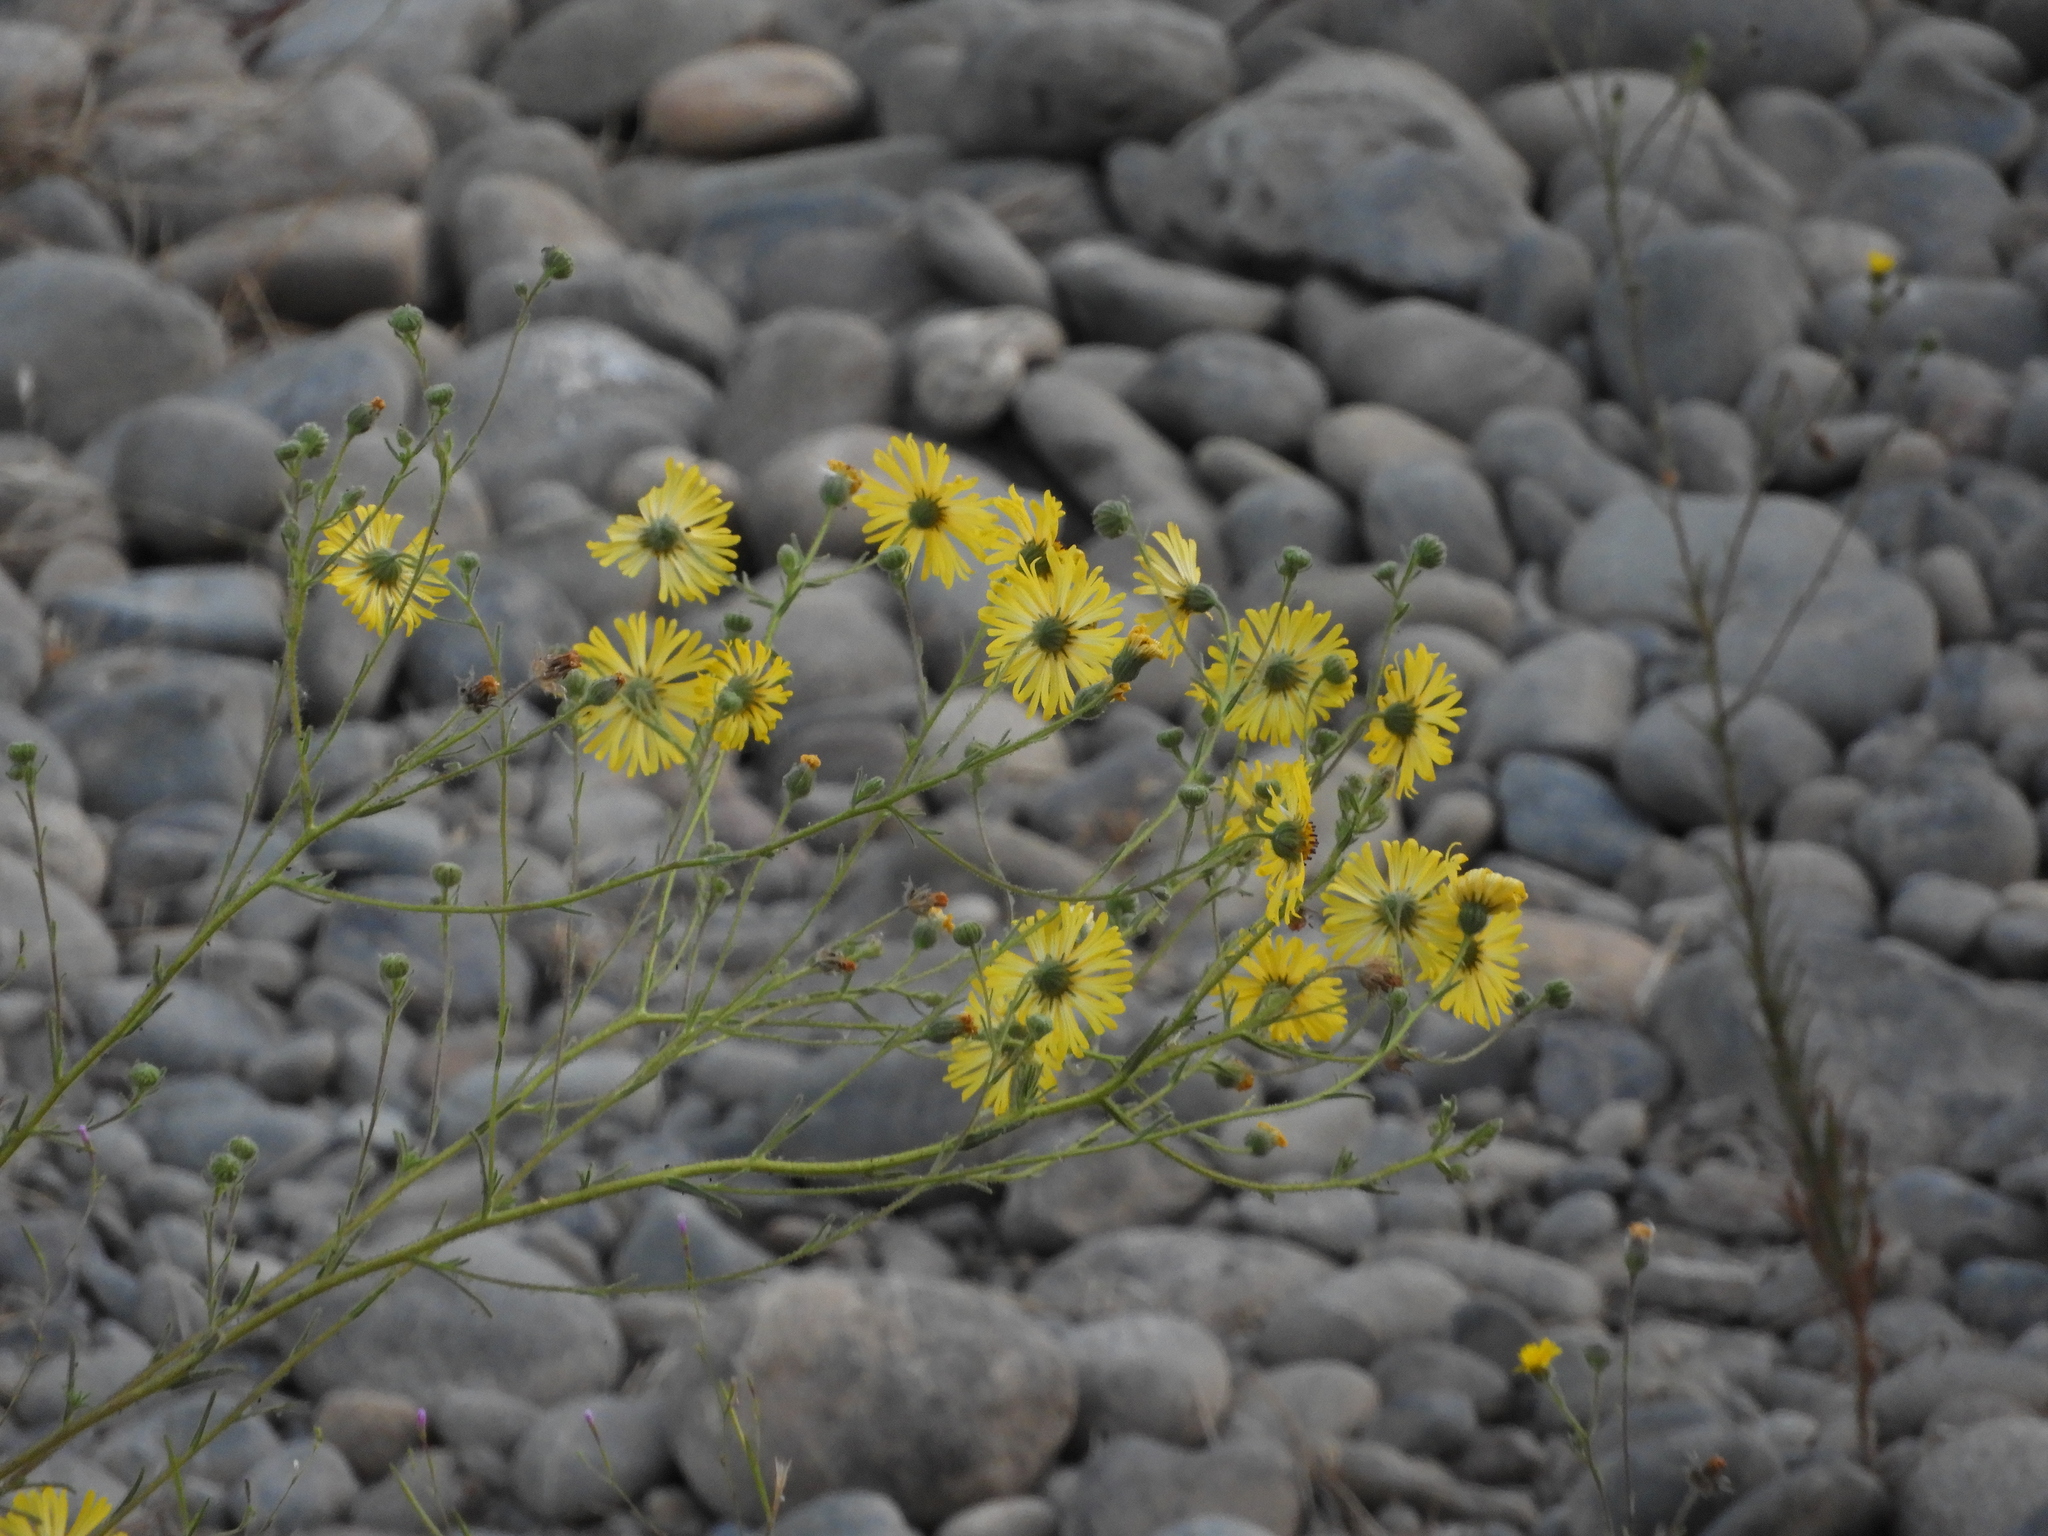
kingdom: Plantae
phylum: Tracheophyta
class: Magnoliopsida
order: Asterales
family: Asteraceae
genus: Madia
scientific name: Madia elegans
